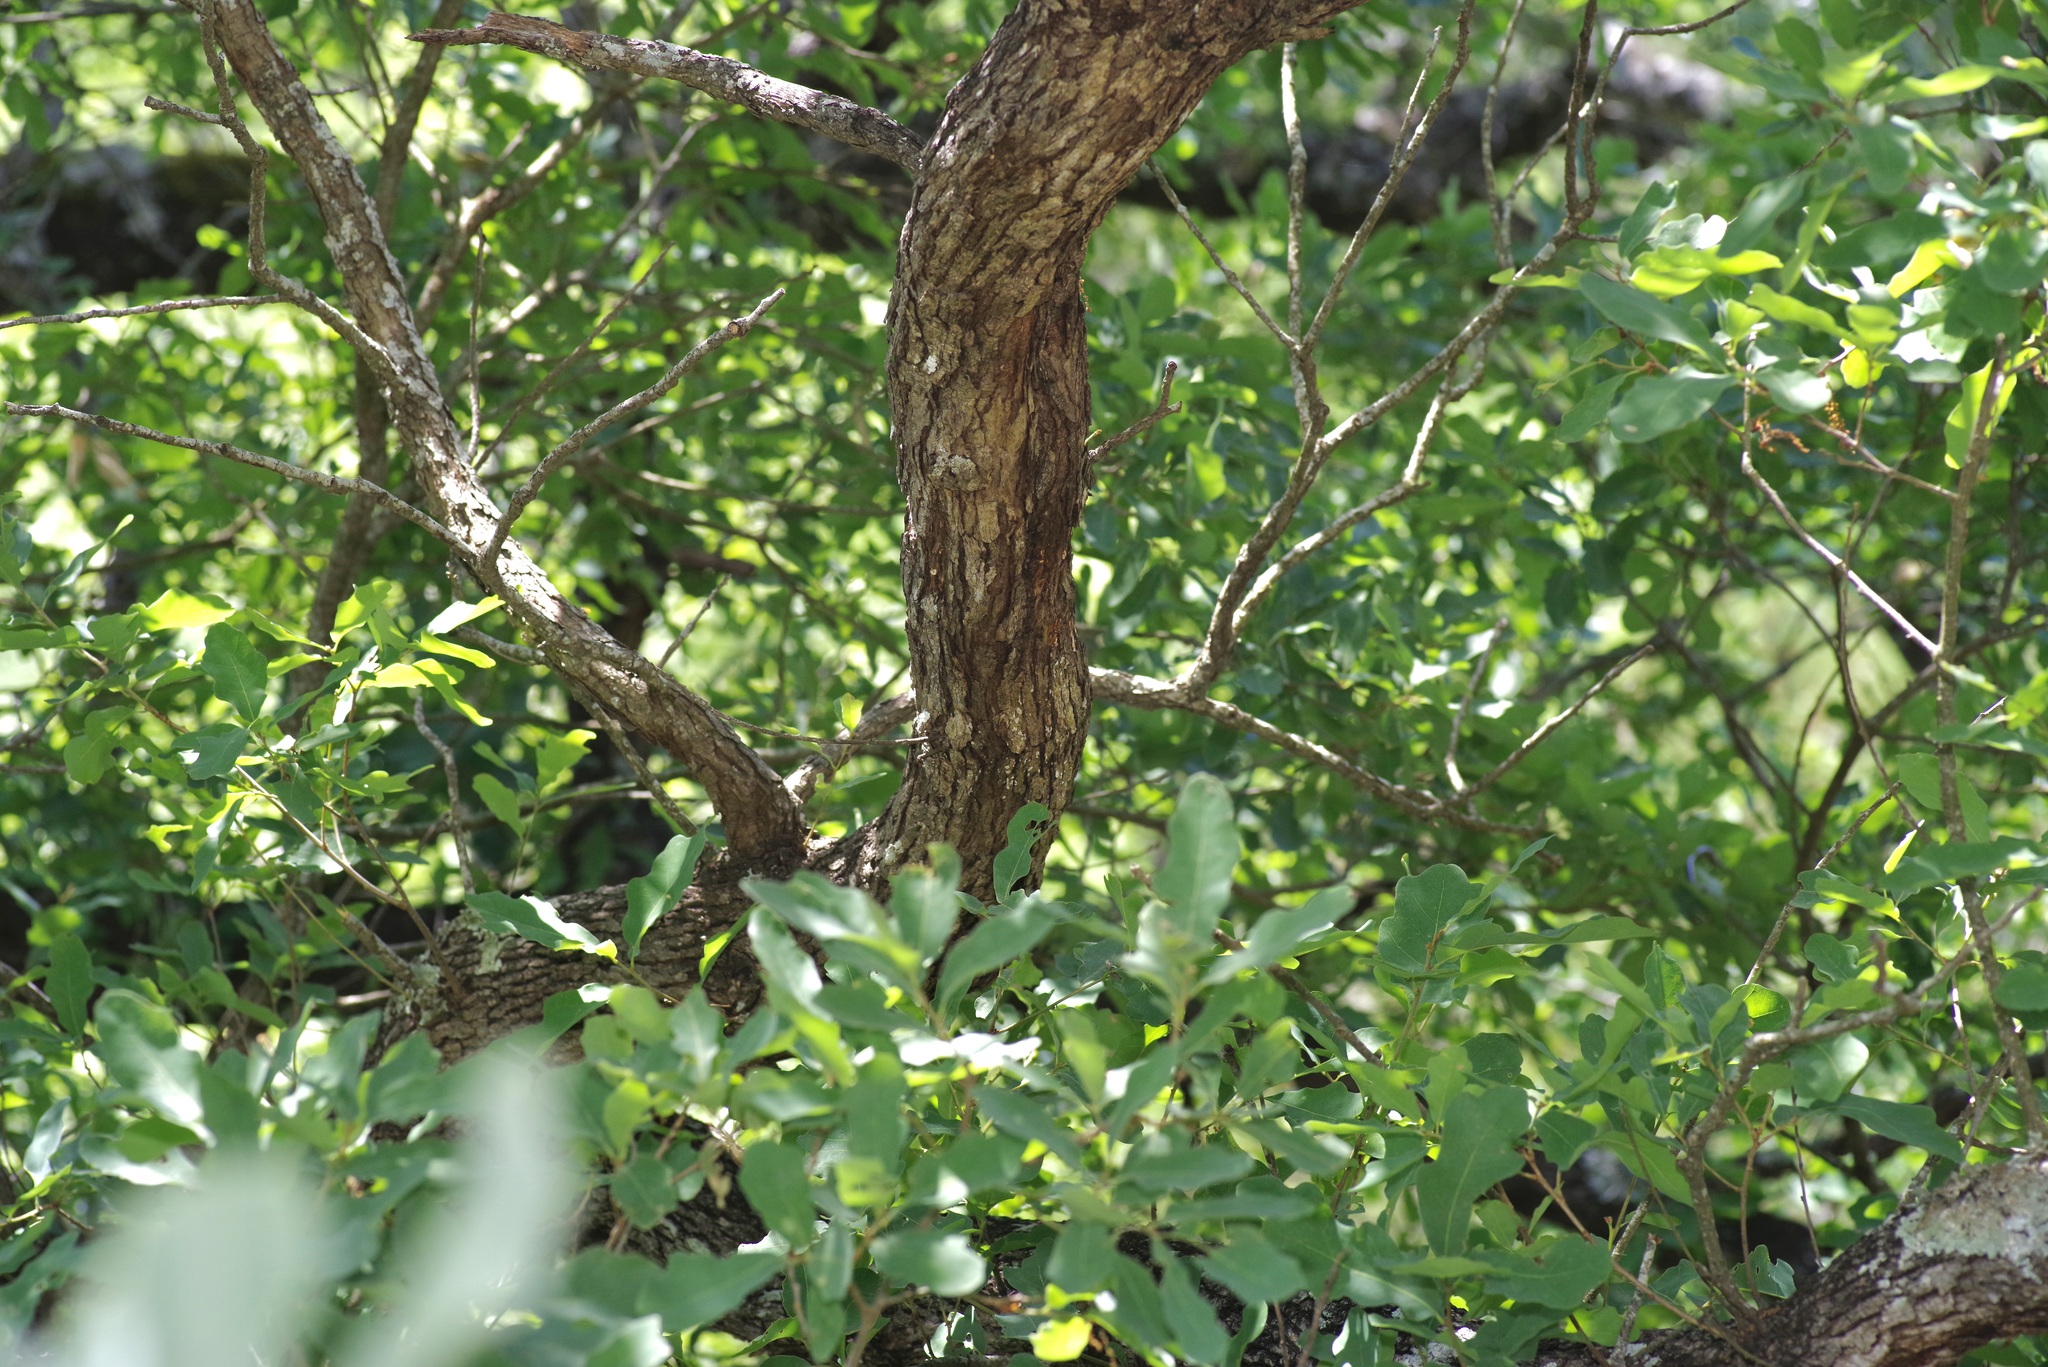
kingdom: Plantae
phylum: Tracheophyta
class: Magnoliopsida
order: Fagales
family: Fagaceae
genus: Quercus
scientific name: Quercus laceyi
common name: Lacey oak
